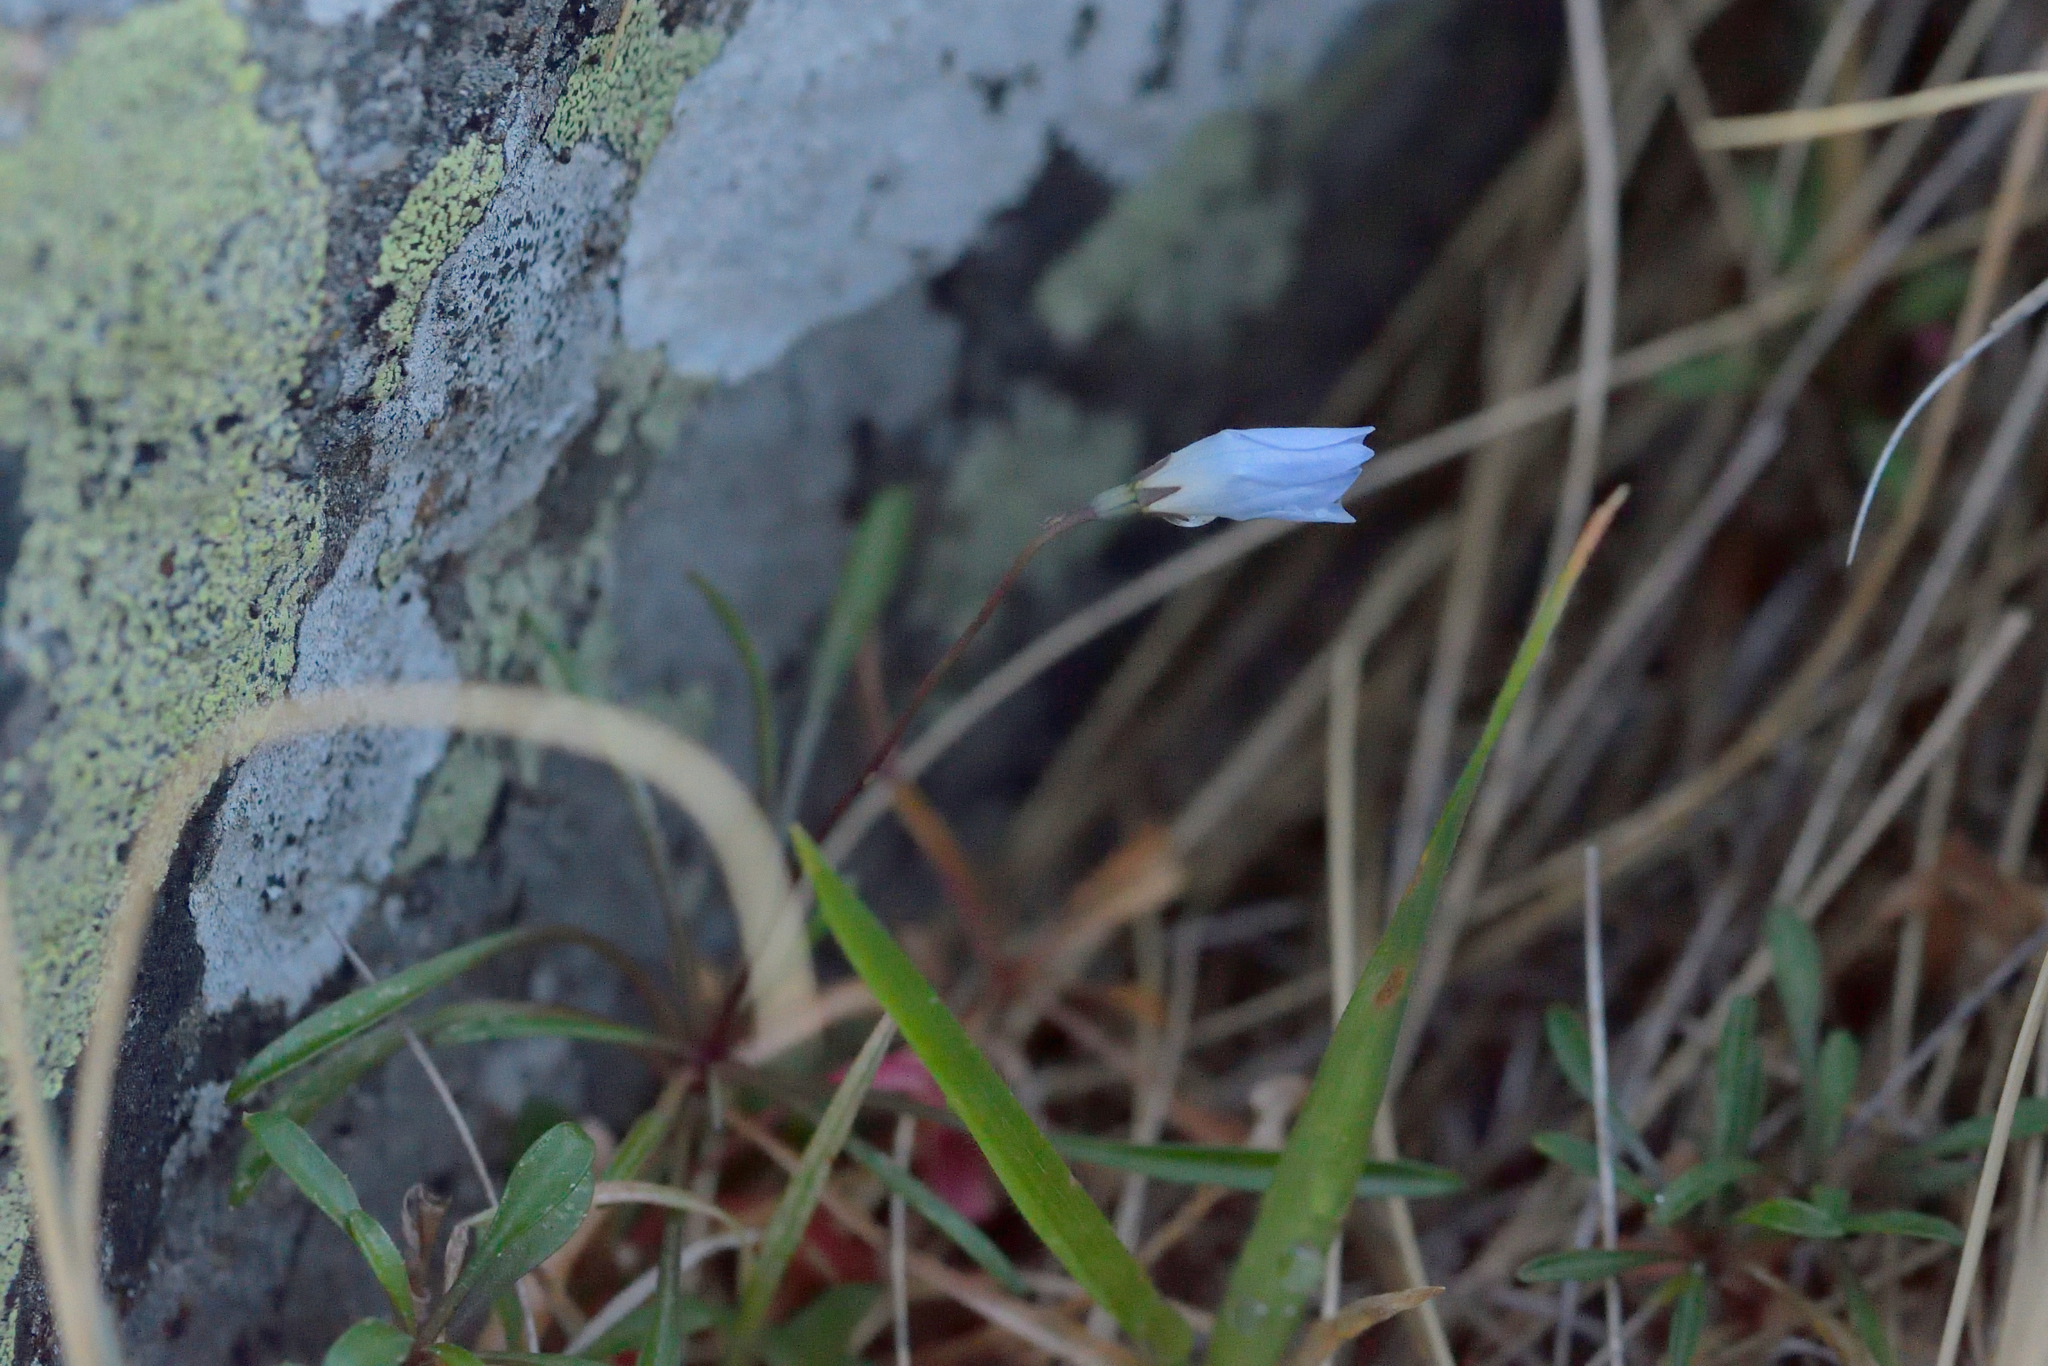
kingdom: Plantae
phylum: Tracheophyta
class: Magnoliopsida
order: Asterales
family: Campanulaceae
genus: Wahlenbergia
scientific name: Wahlenbergia albomarginata
